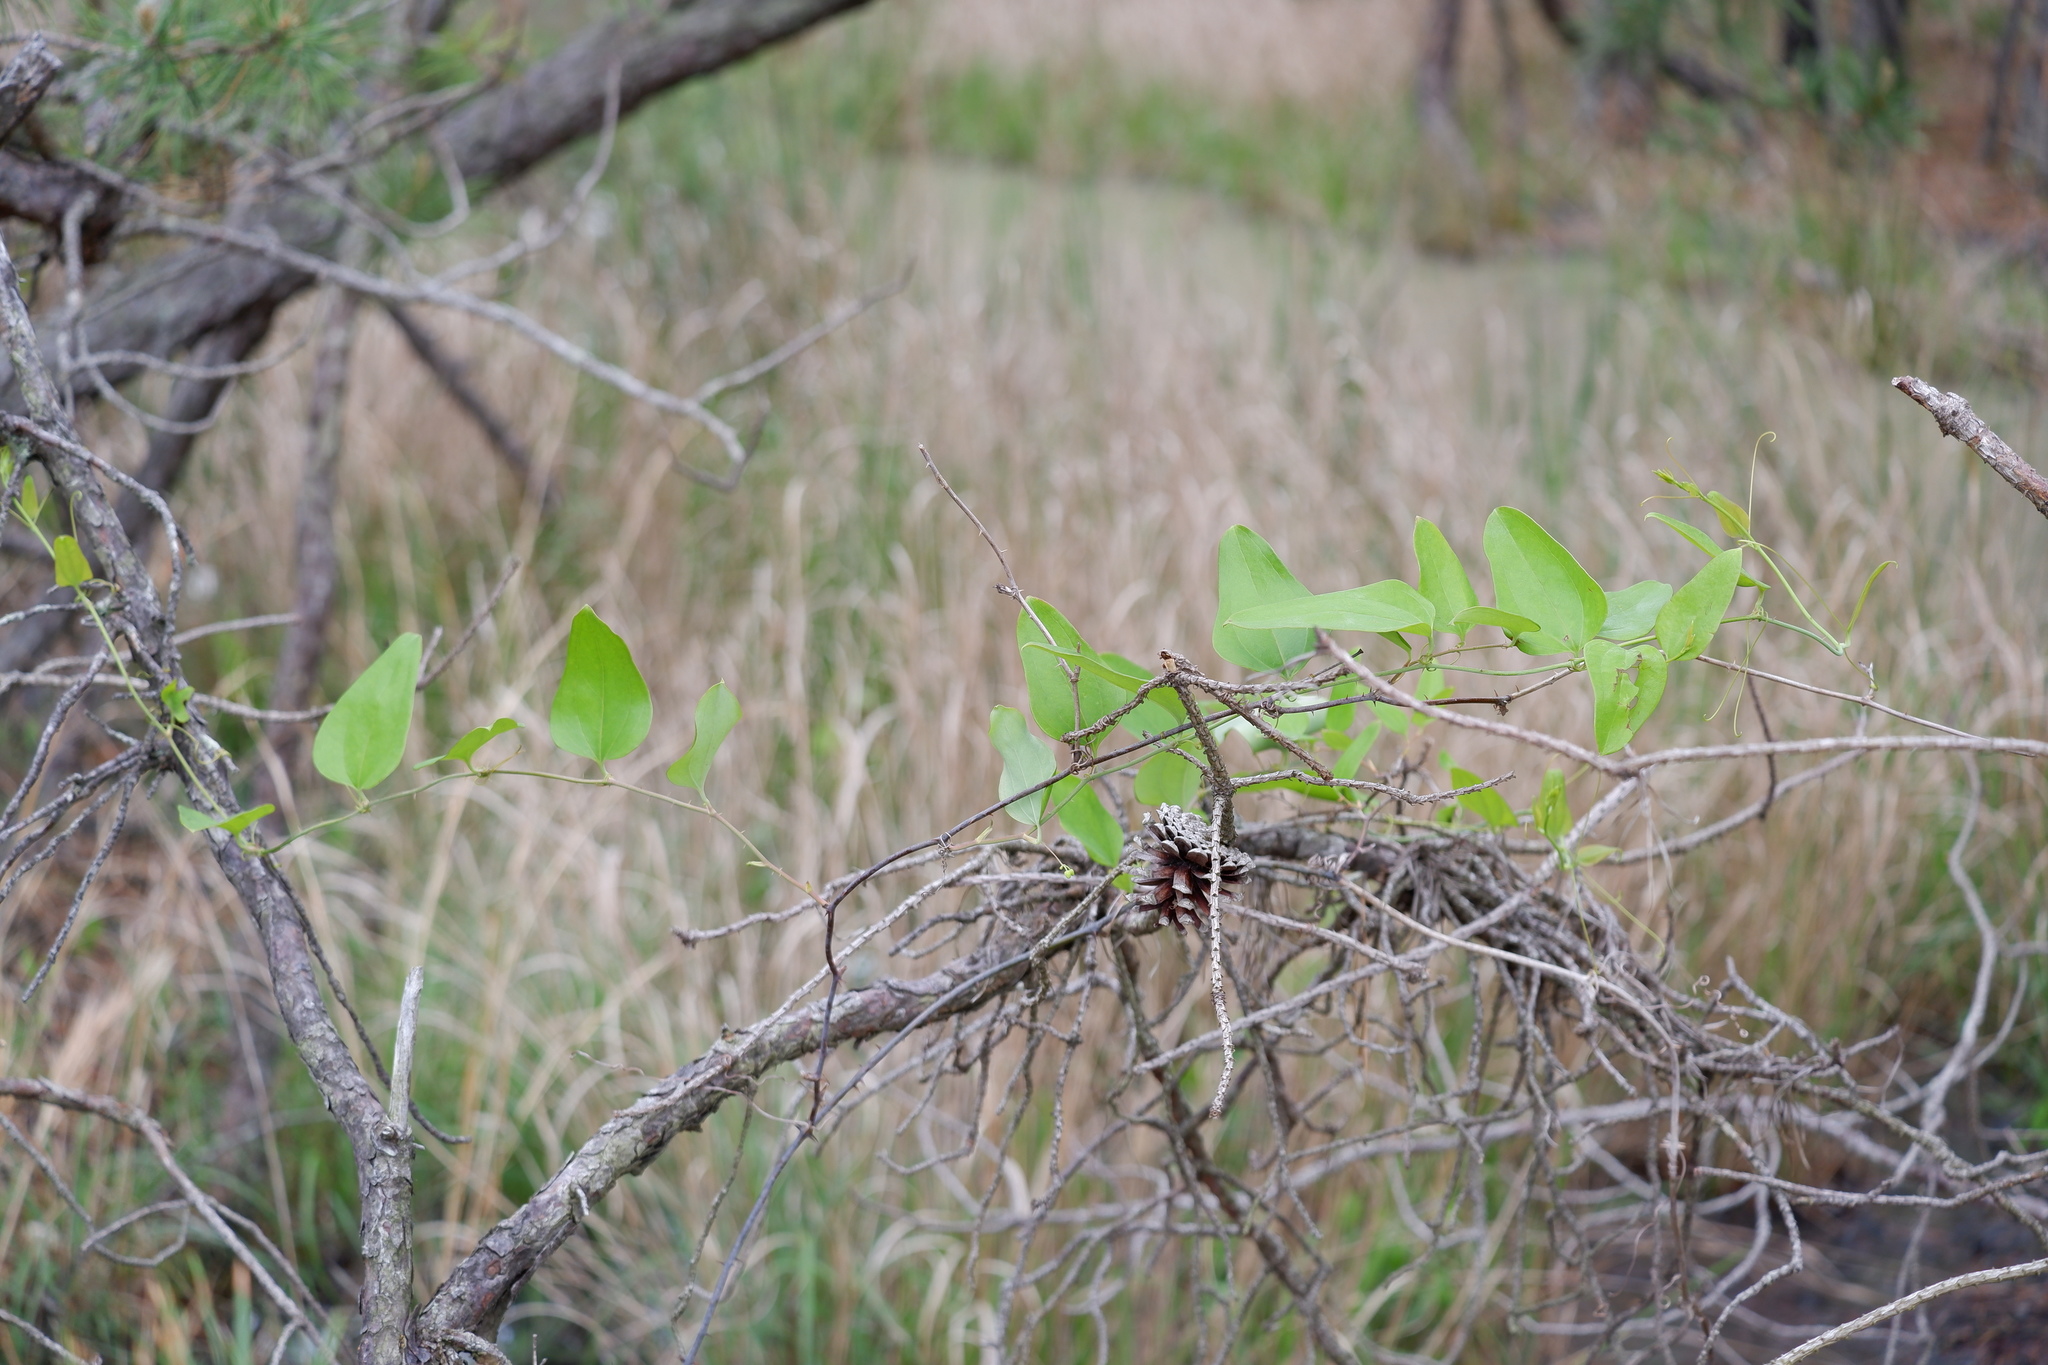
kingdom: Plantae
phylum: Tracheophyta
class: Liliopsida
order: Liliales
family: Smilacaceae
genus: Smilax
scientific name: Smilax glauca
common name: Cat greenbrier
